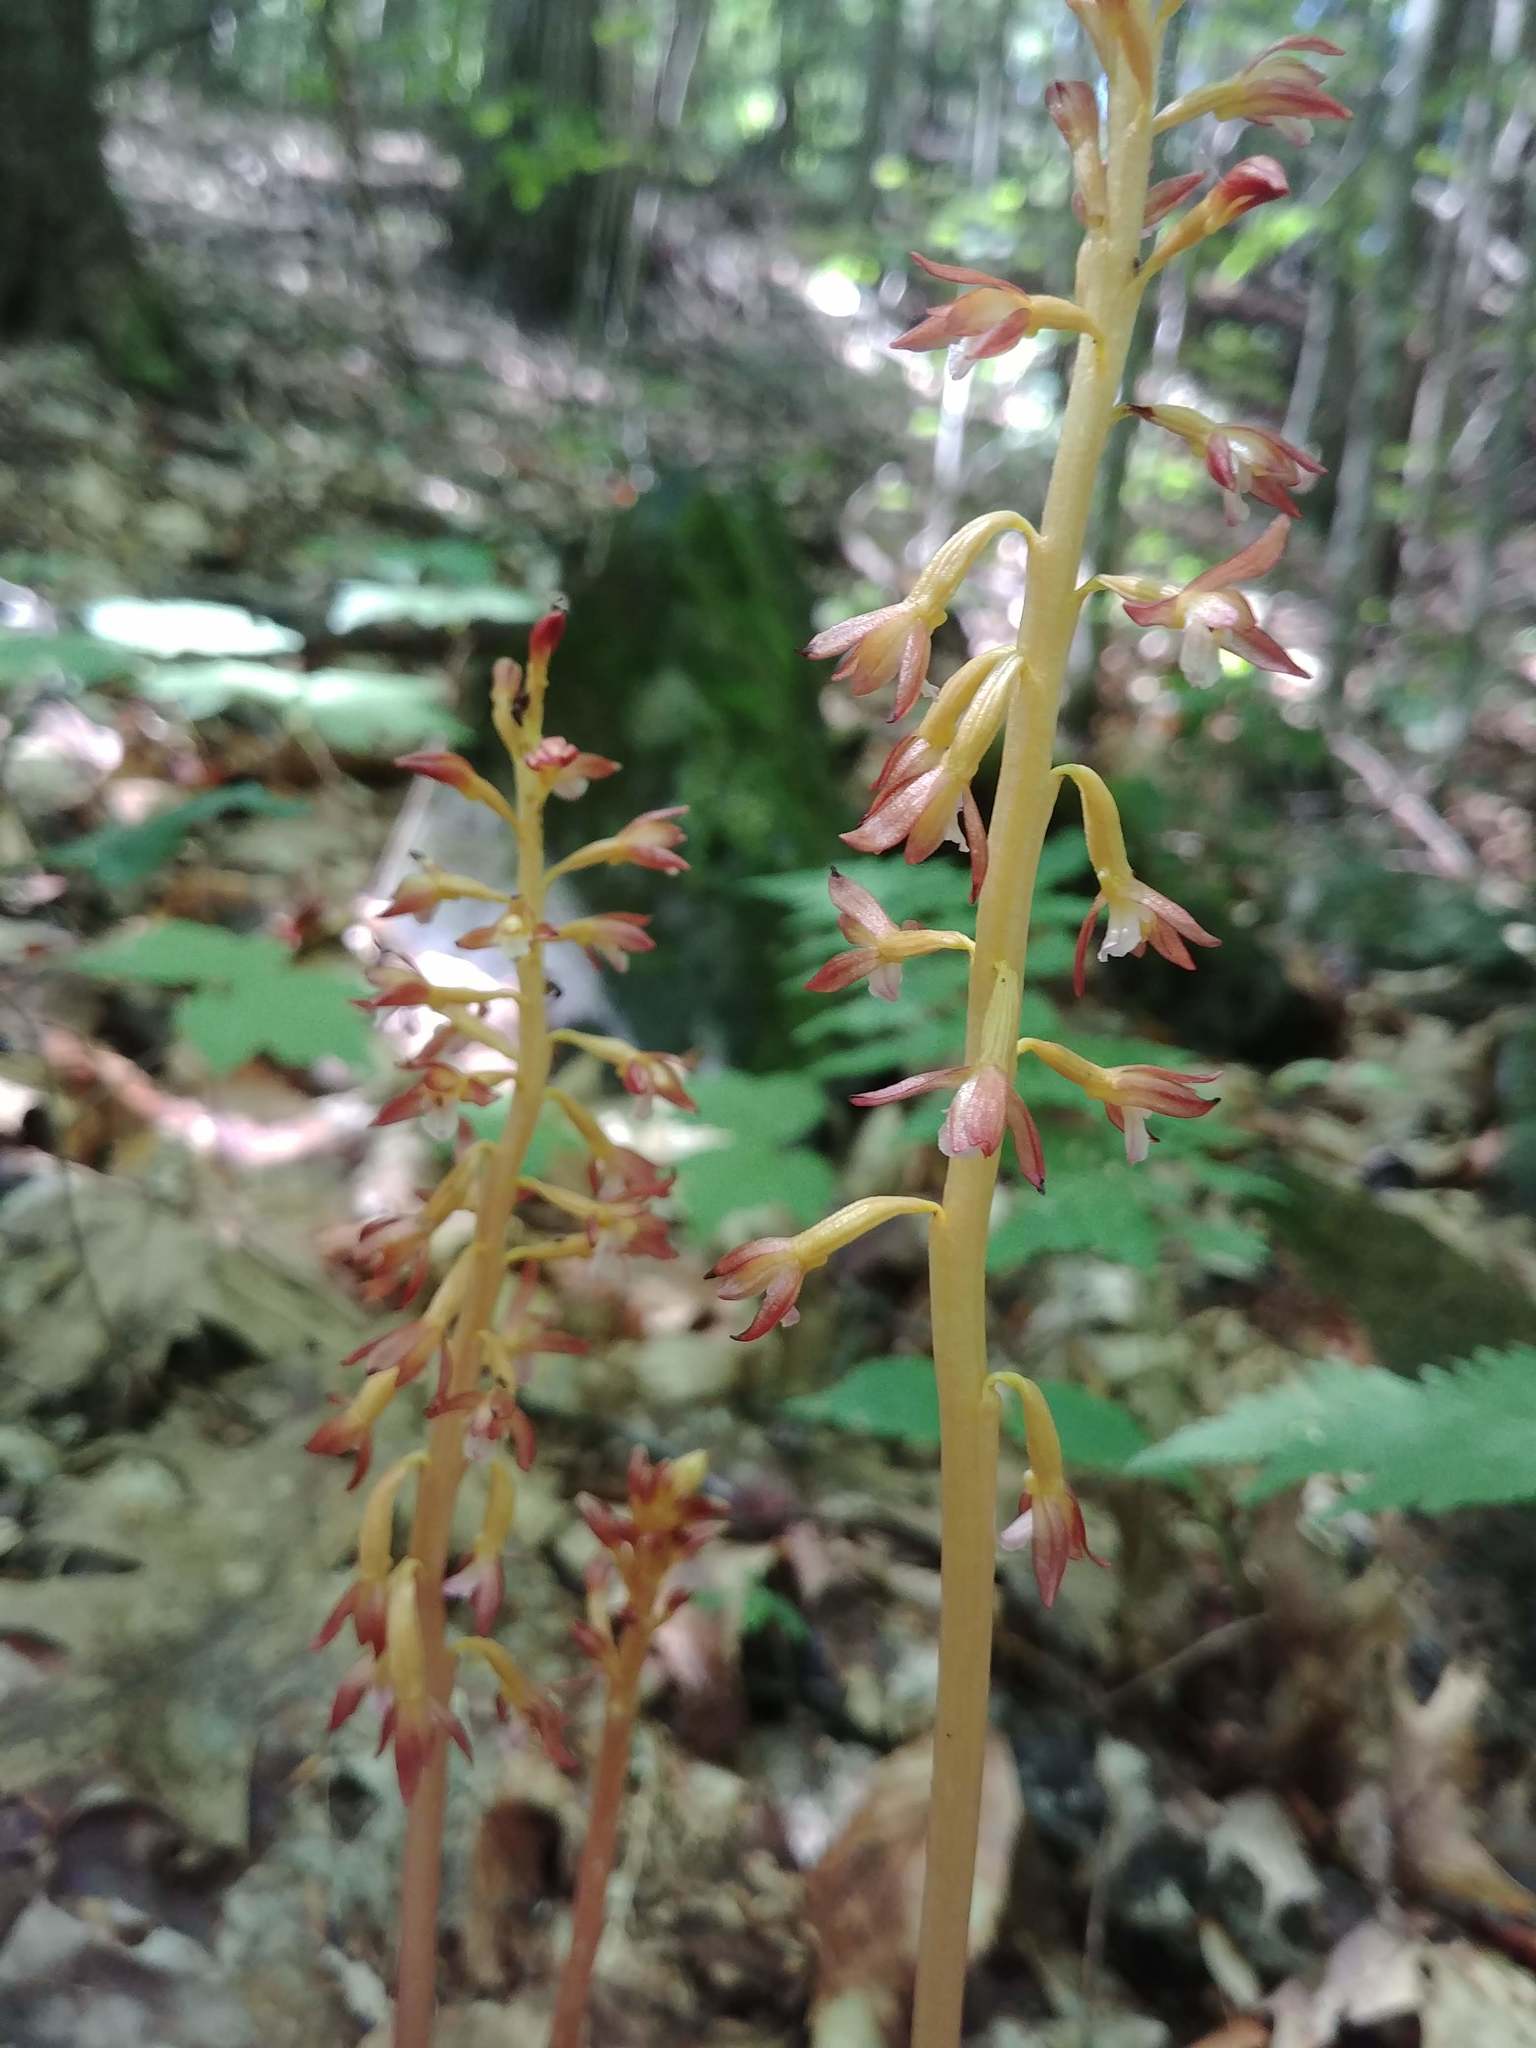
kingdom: Plantae
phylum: Tracheophyta
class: Liliopsida
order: Asparagales
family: Orchidaceae
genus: Corallorhiza
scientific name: Corallorhiza maculata
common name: Spotted coralroot
